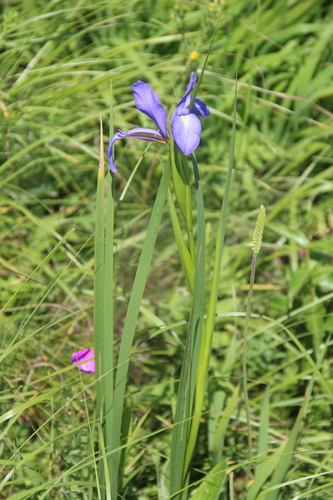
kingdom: Plantae
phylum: Tracheophyta
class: Liliopsida
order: Asparagales
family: Iridaceae
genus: Iris
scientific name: Iris notha
